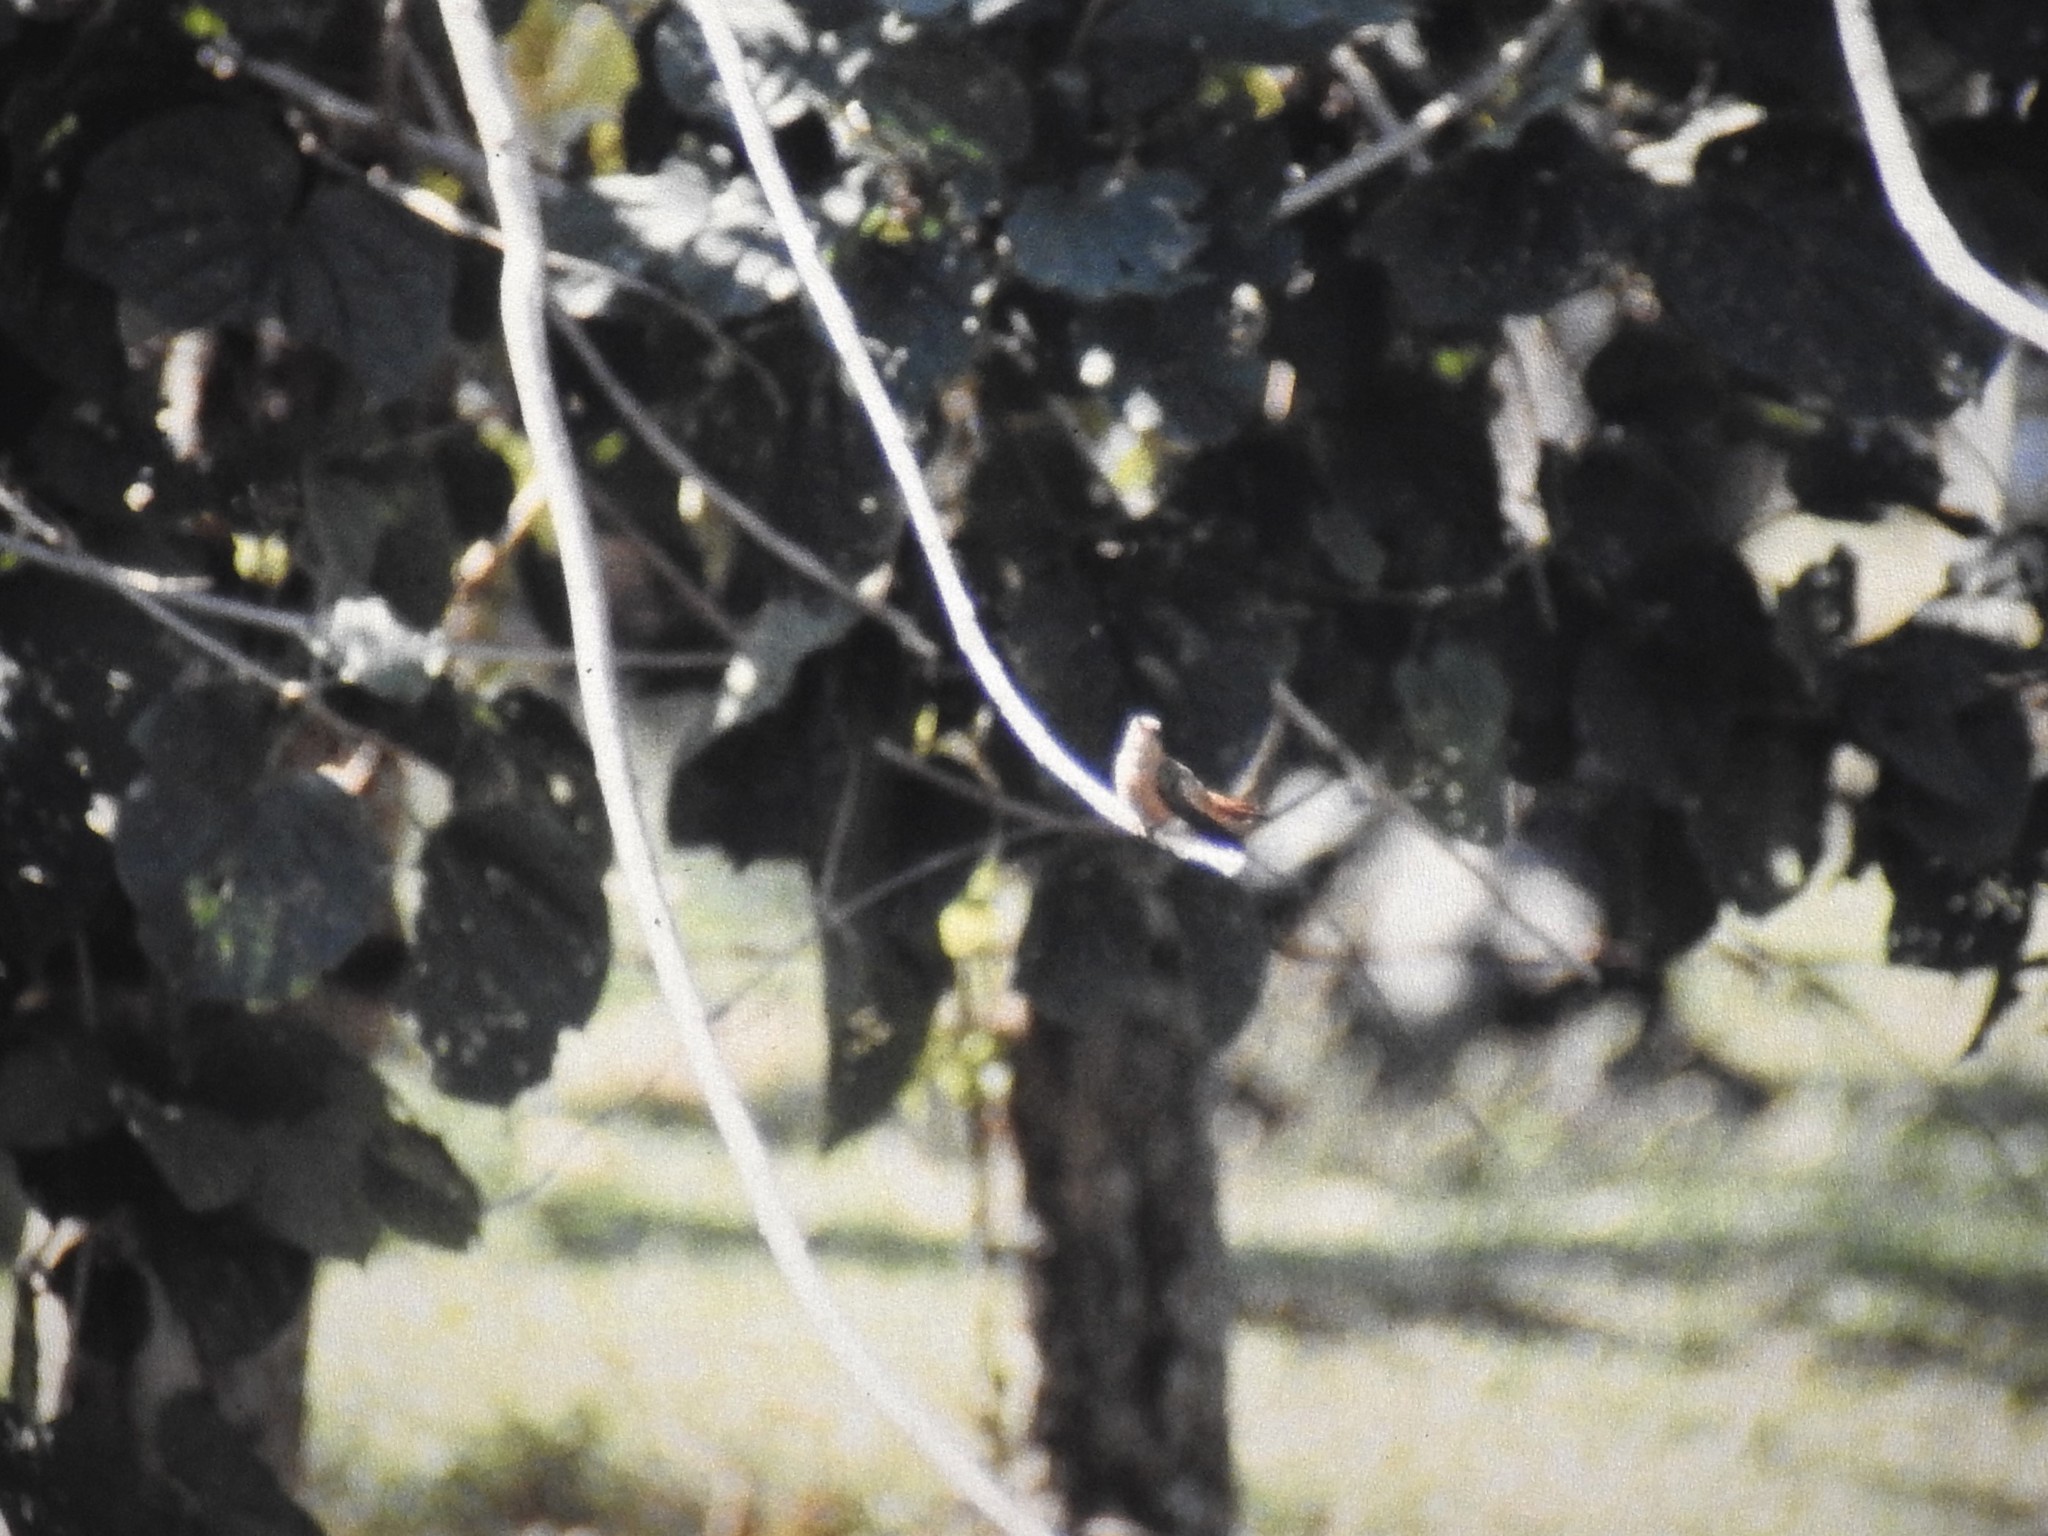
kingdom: Animalia
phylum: Chordata
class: Aves
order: Apodiformes
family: Trochilidae
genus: Amazilia
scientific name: Amazilia rutila
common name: Cinnamon hummingbird
